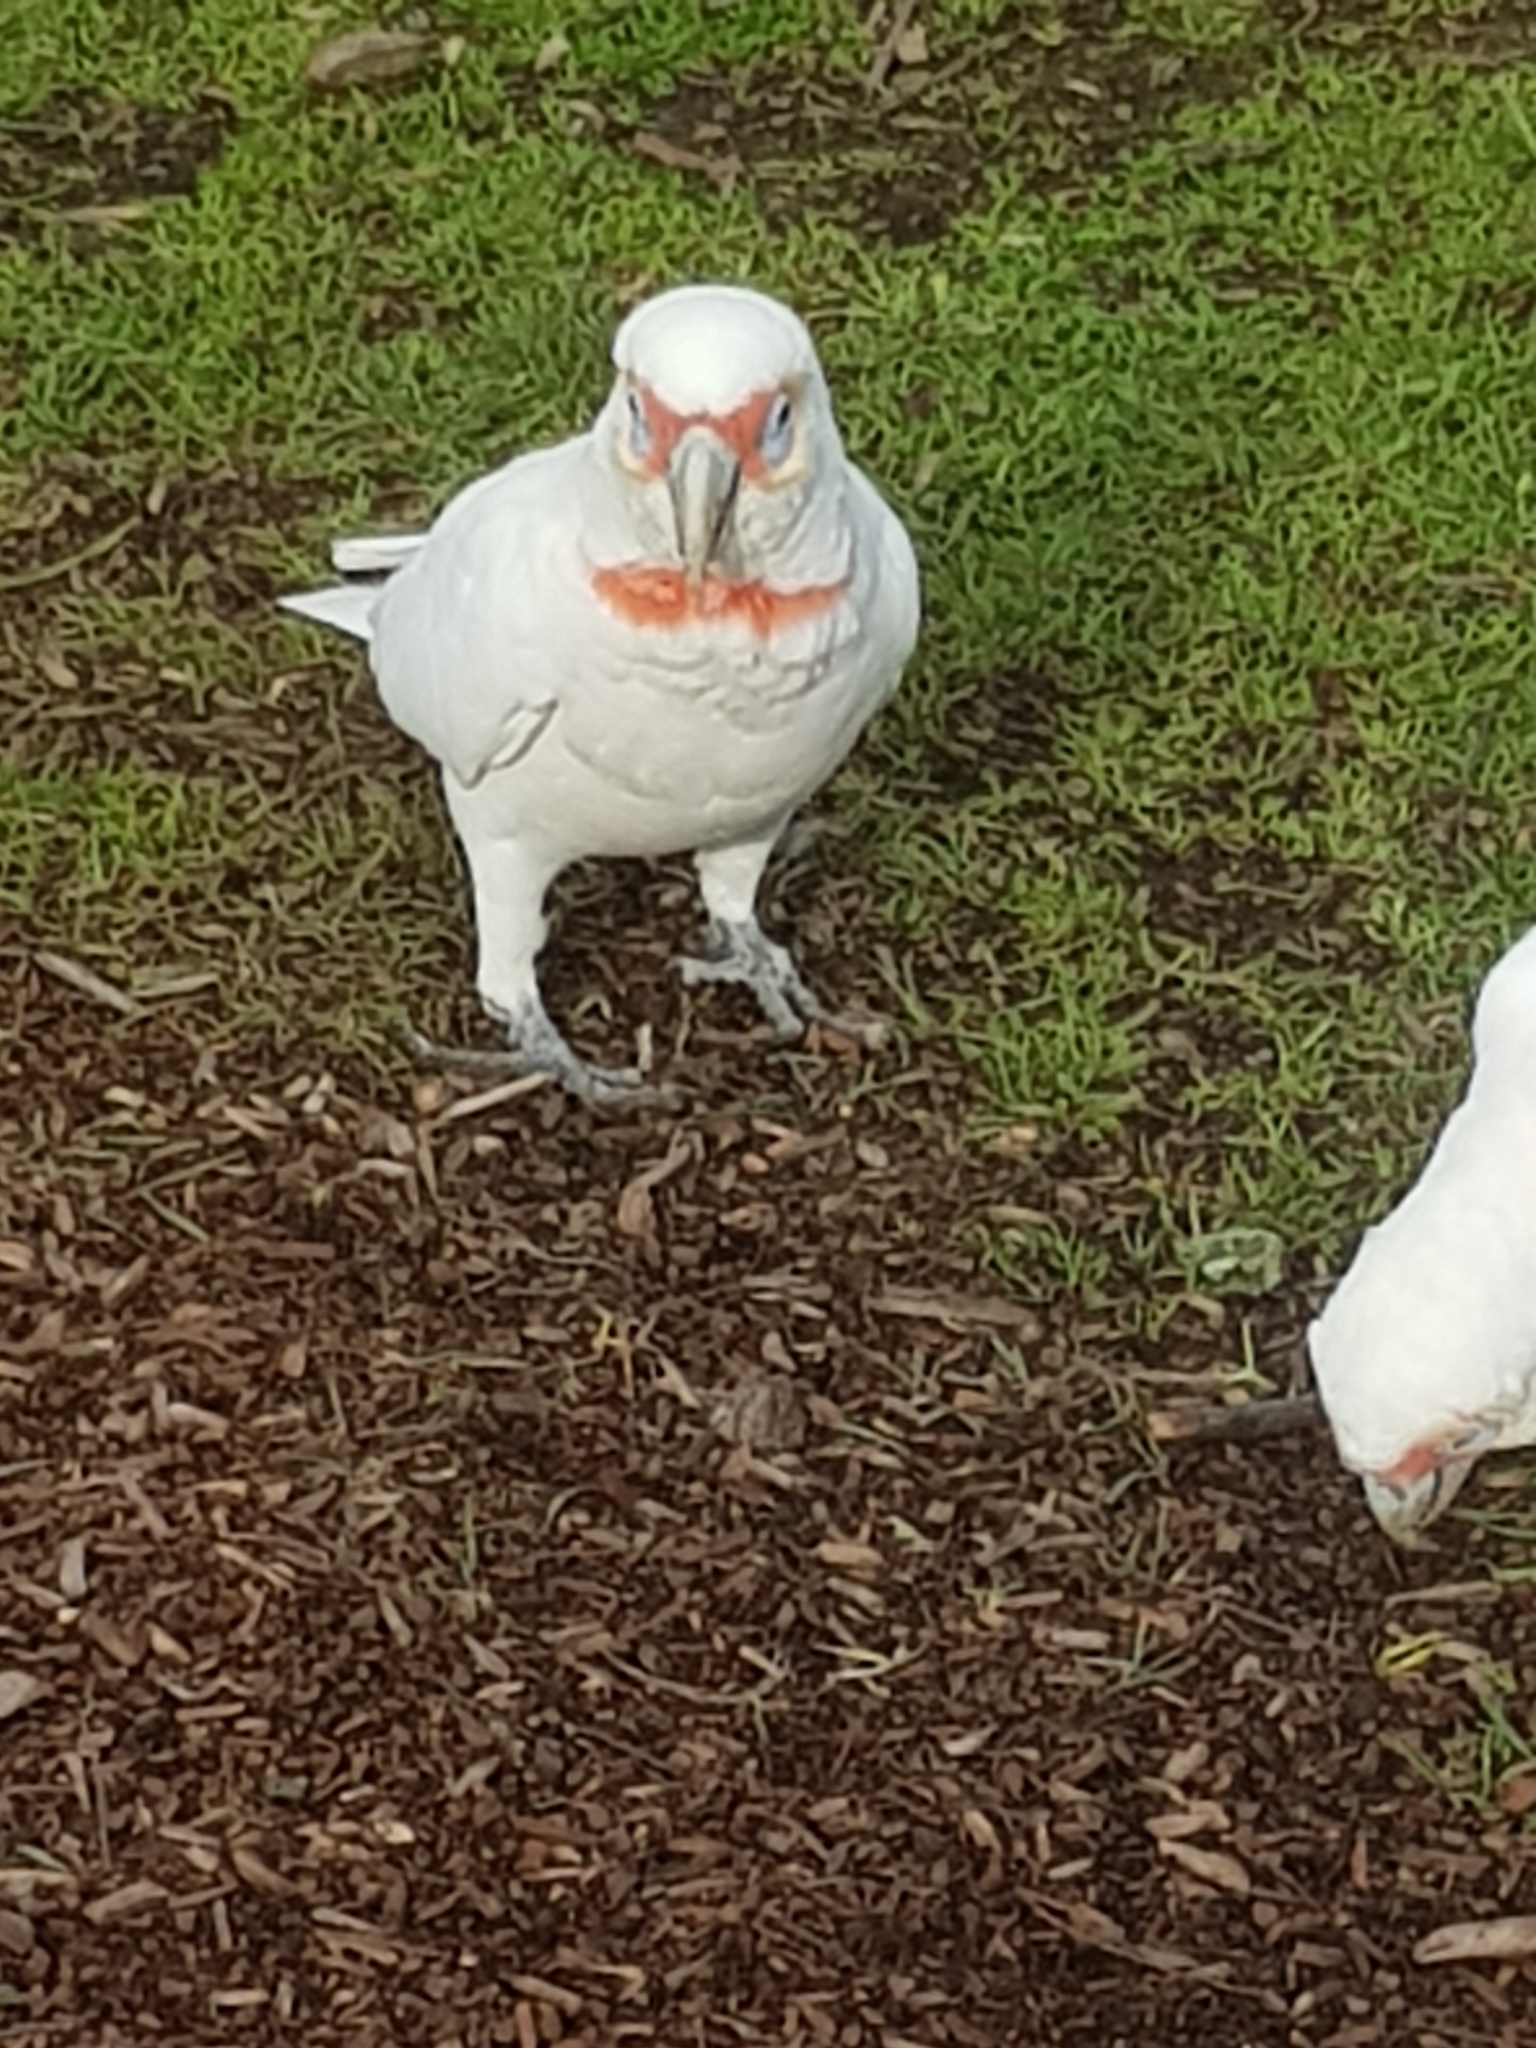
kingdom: Animalia
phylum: Chordata
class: Aves
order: Psittaciformes
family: Psittacidae
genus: Cacatua
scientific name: Cacatua tenuirostris
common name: Long-billed corella
